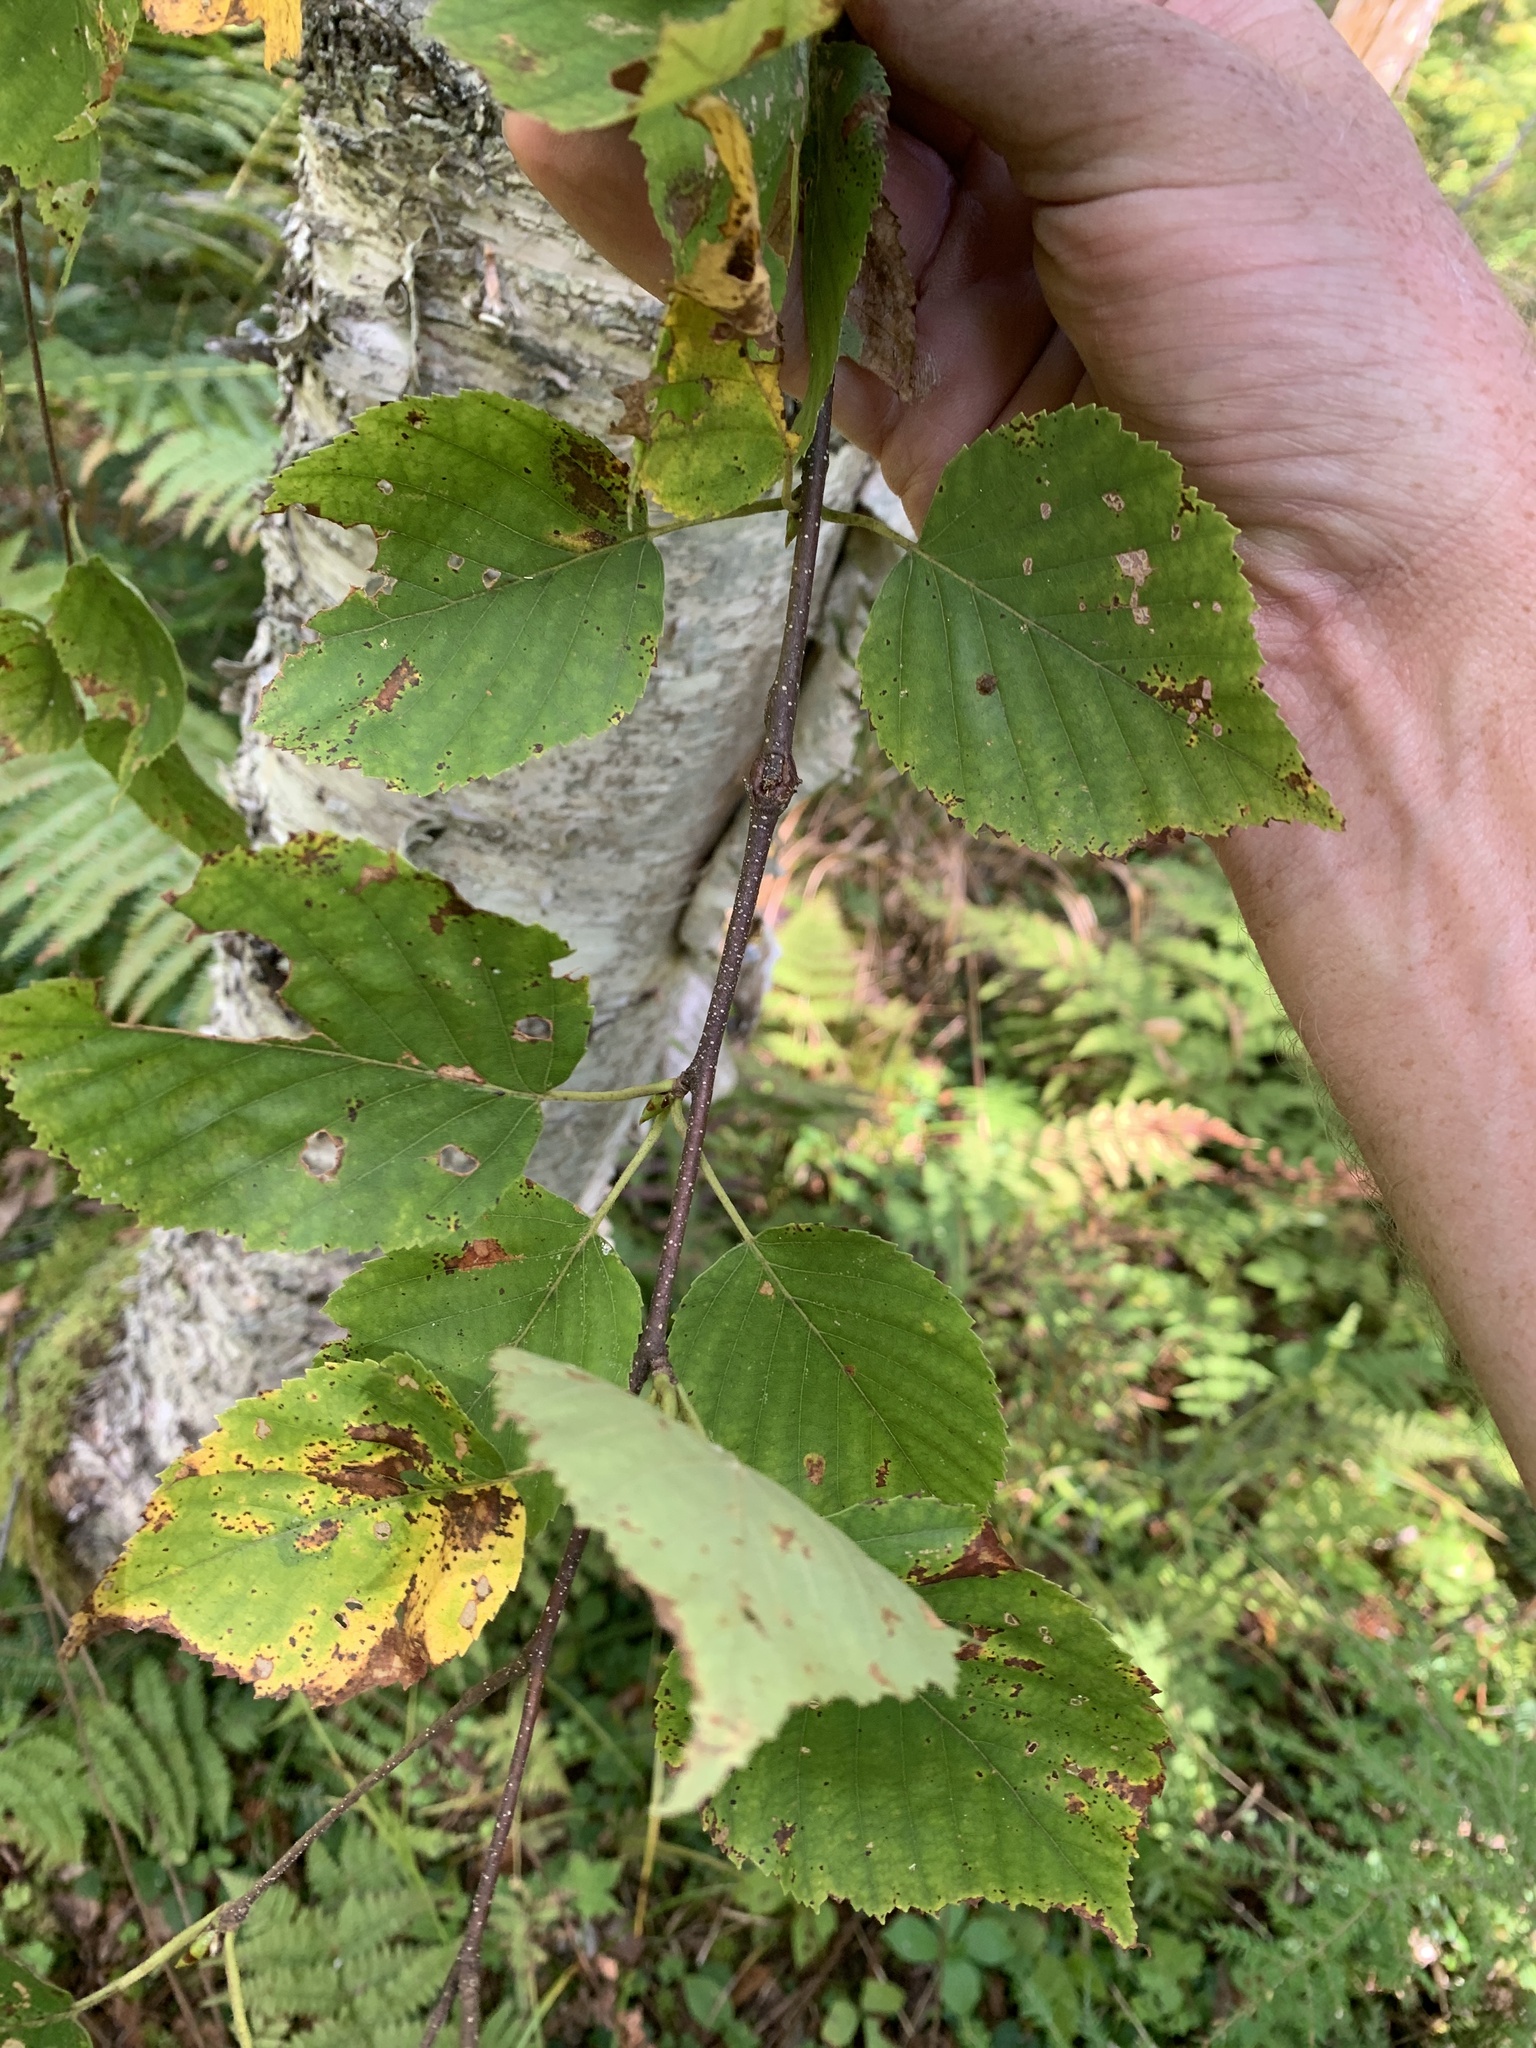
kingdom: Plantae
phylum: Tracheophyta
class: Magnoliopsida
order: Fagales
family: Betulaceae
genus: Betula
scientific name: Betula papyrifera
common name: Paper birch
